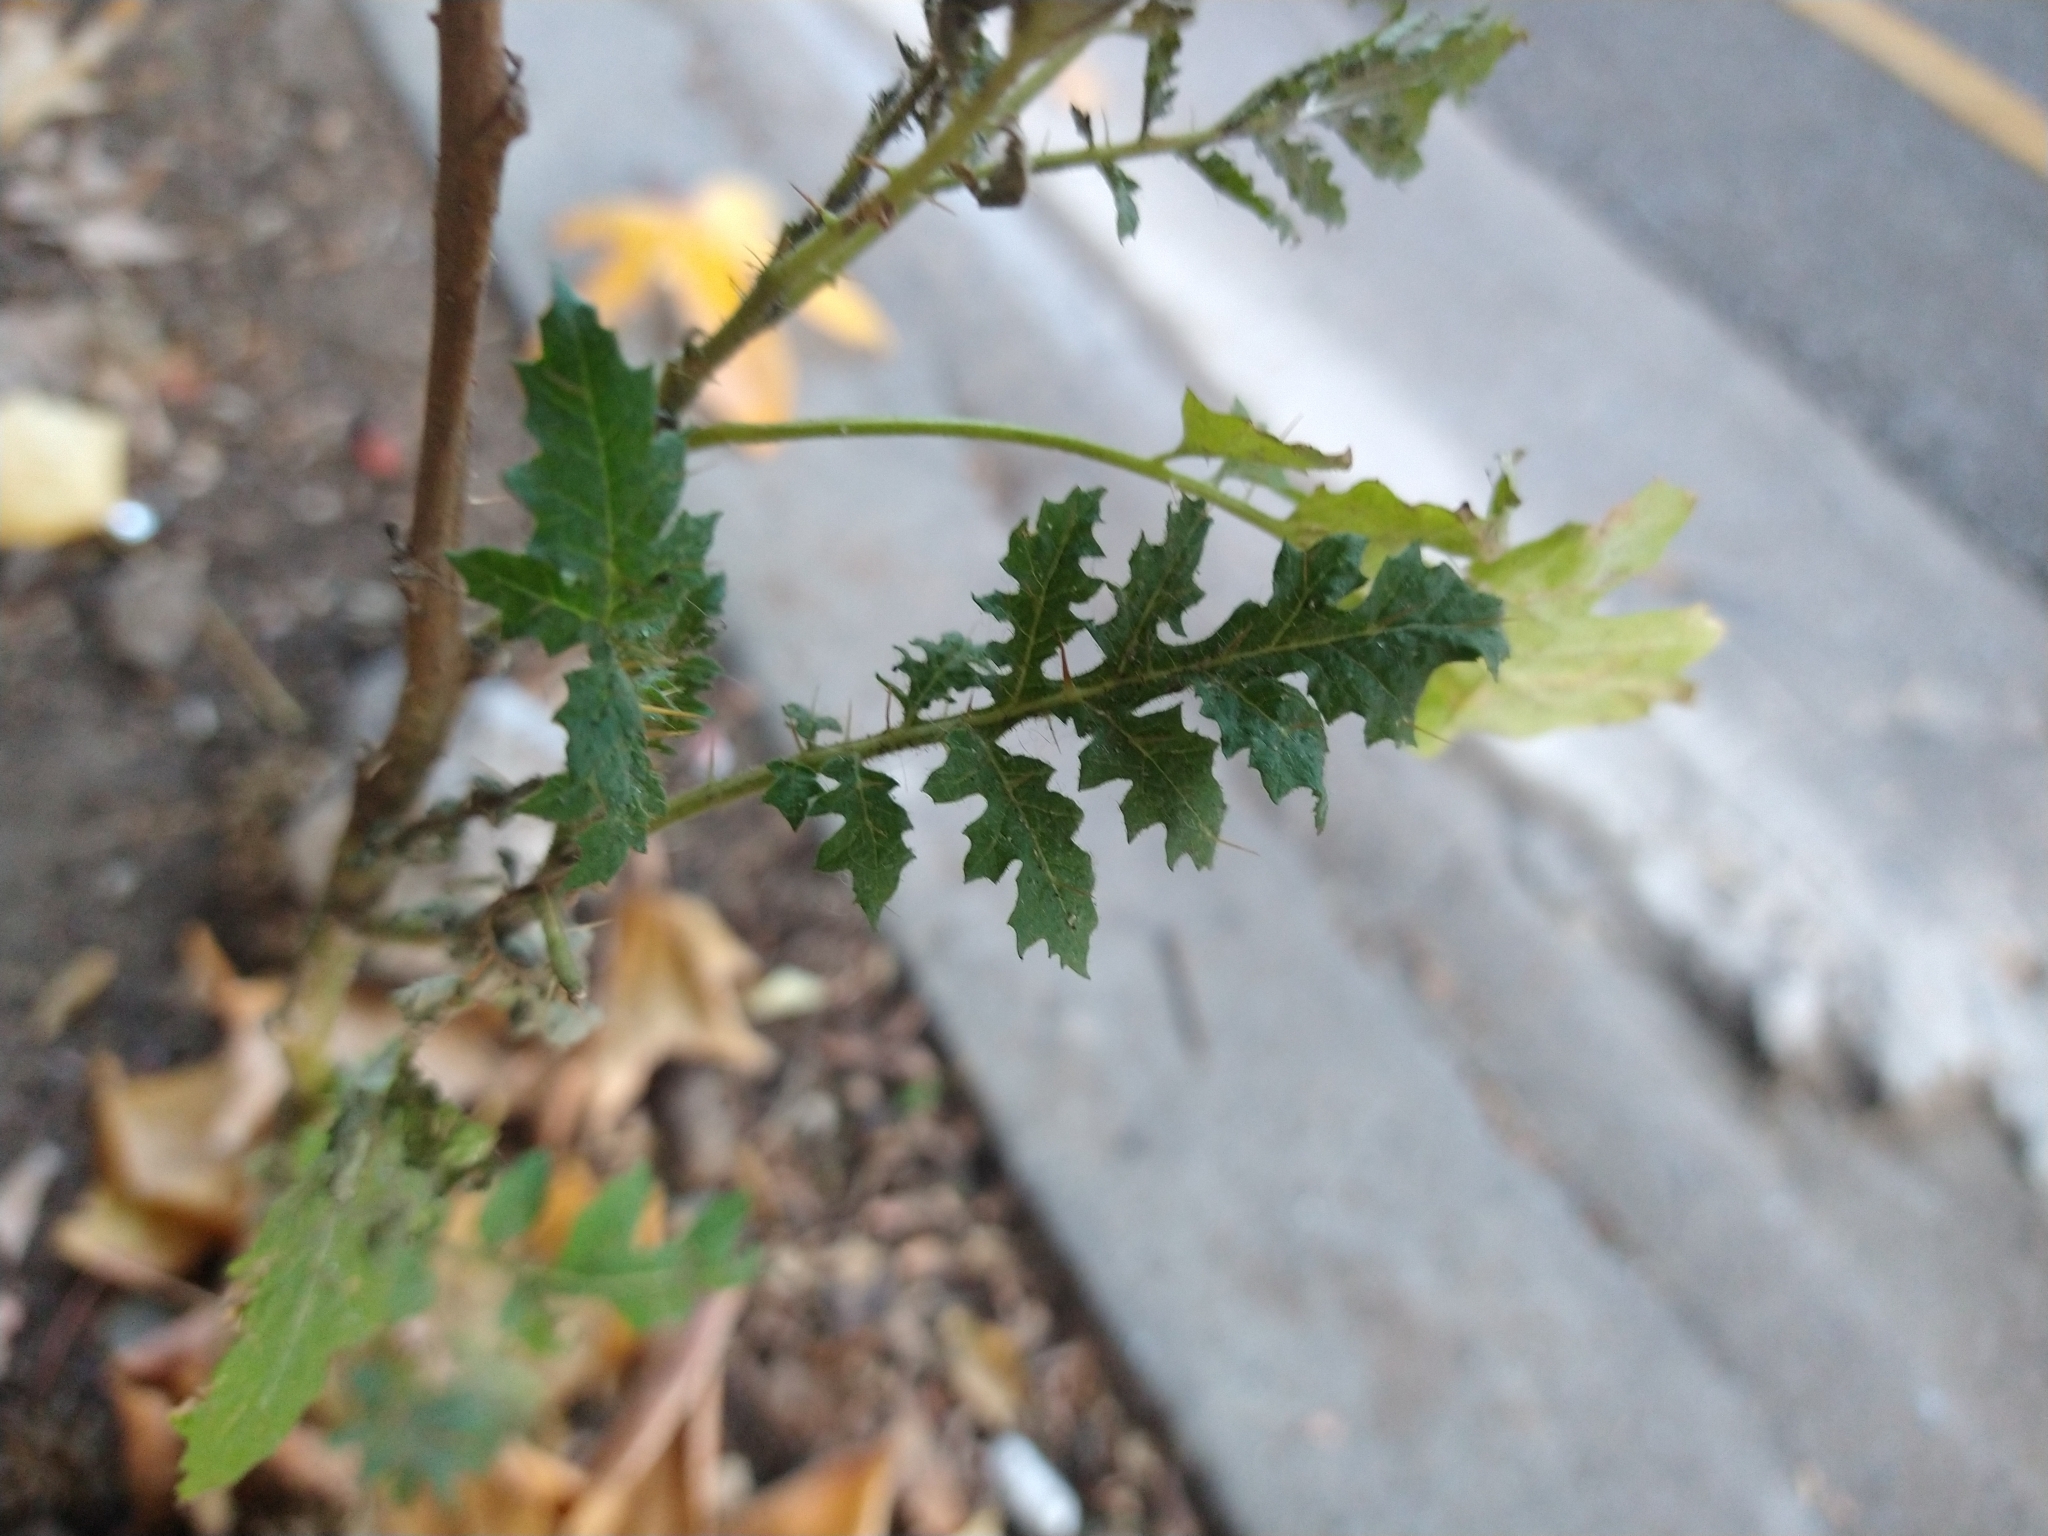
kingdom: Plantae
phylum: Tracheophyta
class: Magnoliopsida
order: Solanales
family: Solanaceae
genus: Solanum
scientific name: Solanum sisymbriifolium
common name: Red buffalo-bur
